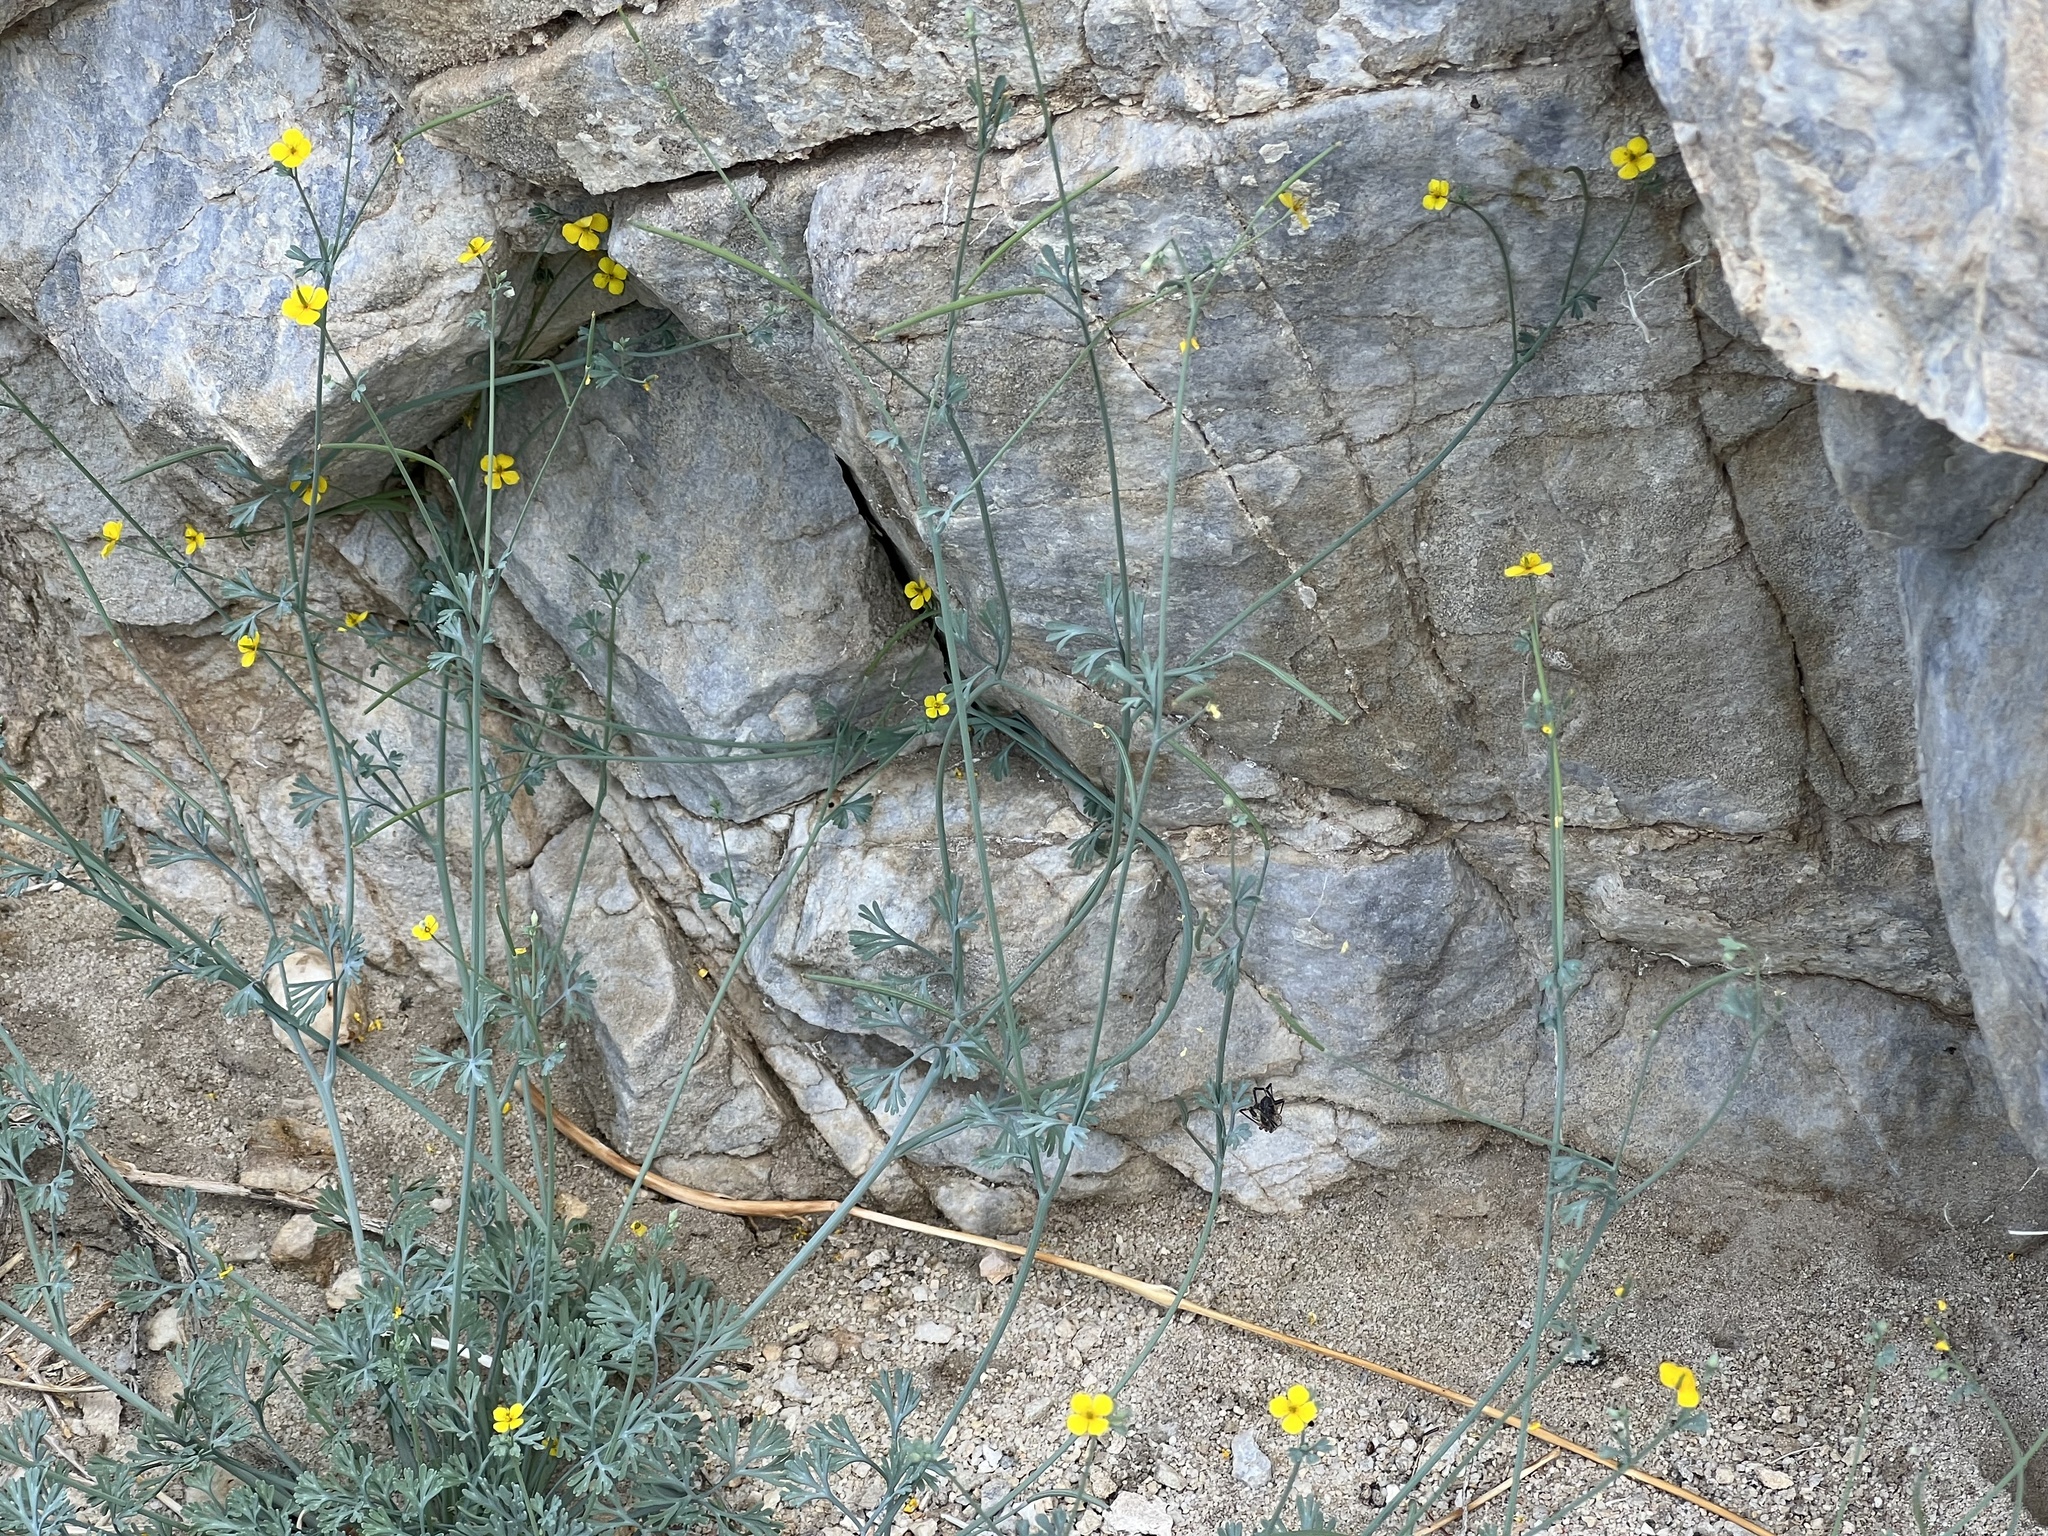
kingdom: Plantae
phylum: Tracheophyta
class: Magnoliopsida
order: Ranunculales
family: Papaveraceae
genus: Eschscholzia
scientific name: Eschscholzia minutiflora
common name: Small-flower california-poppy
